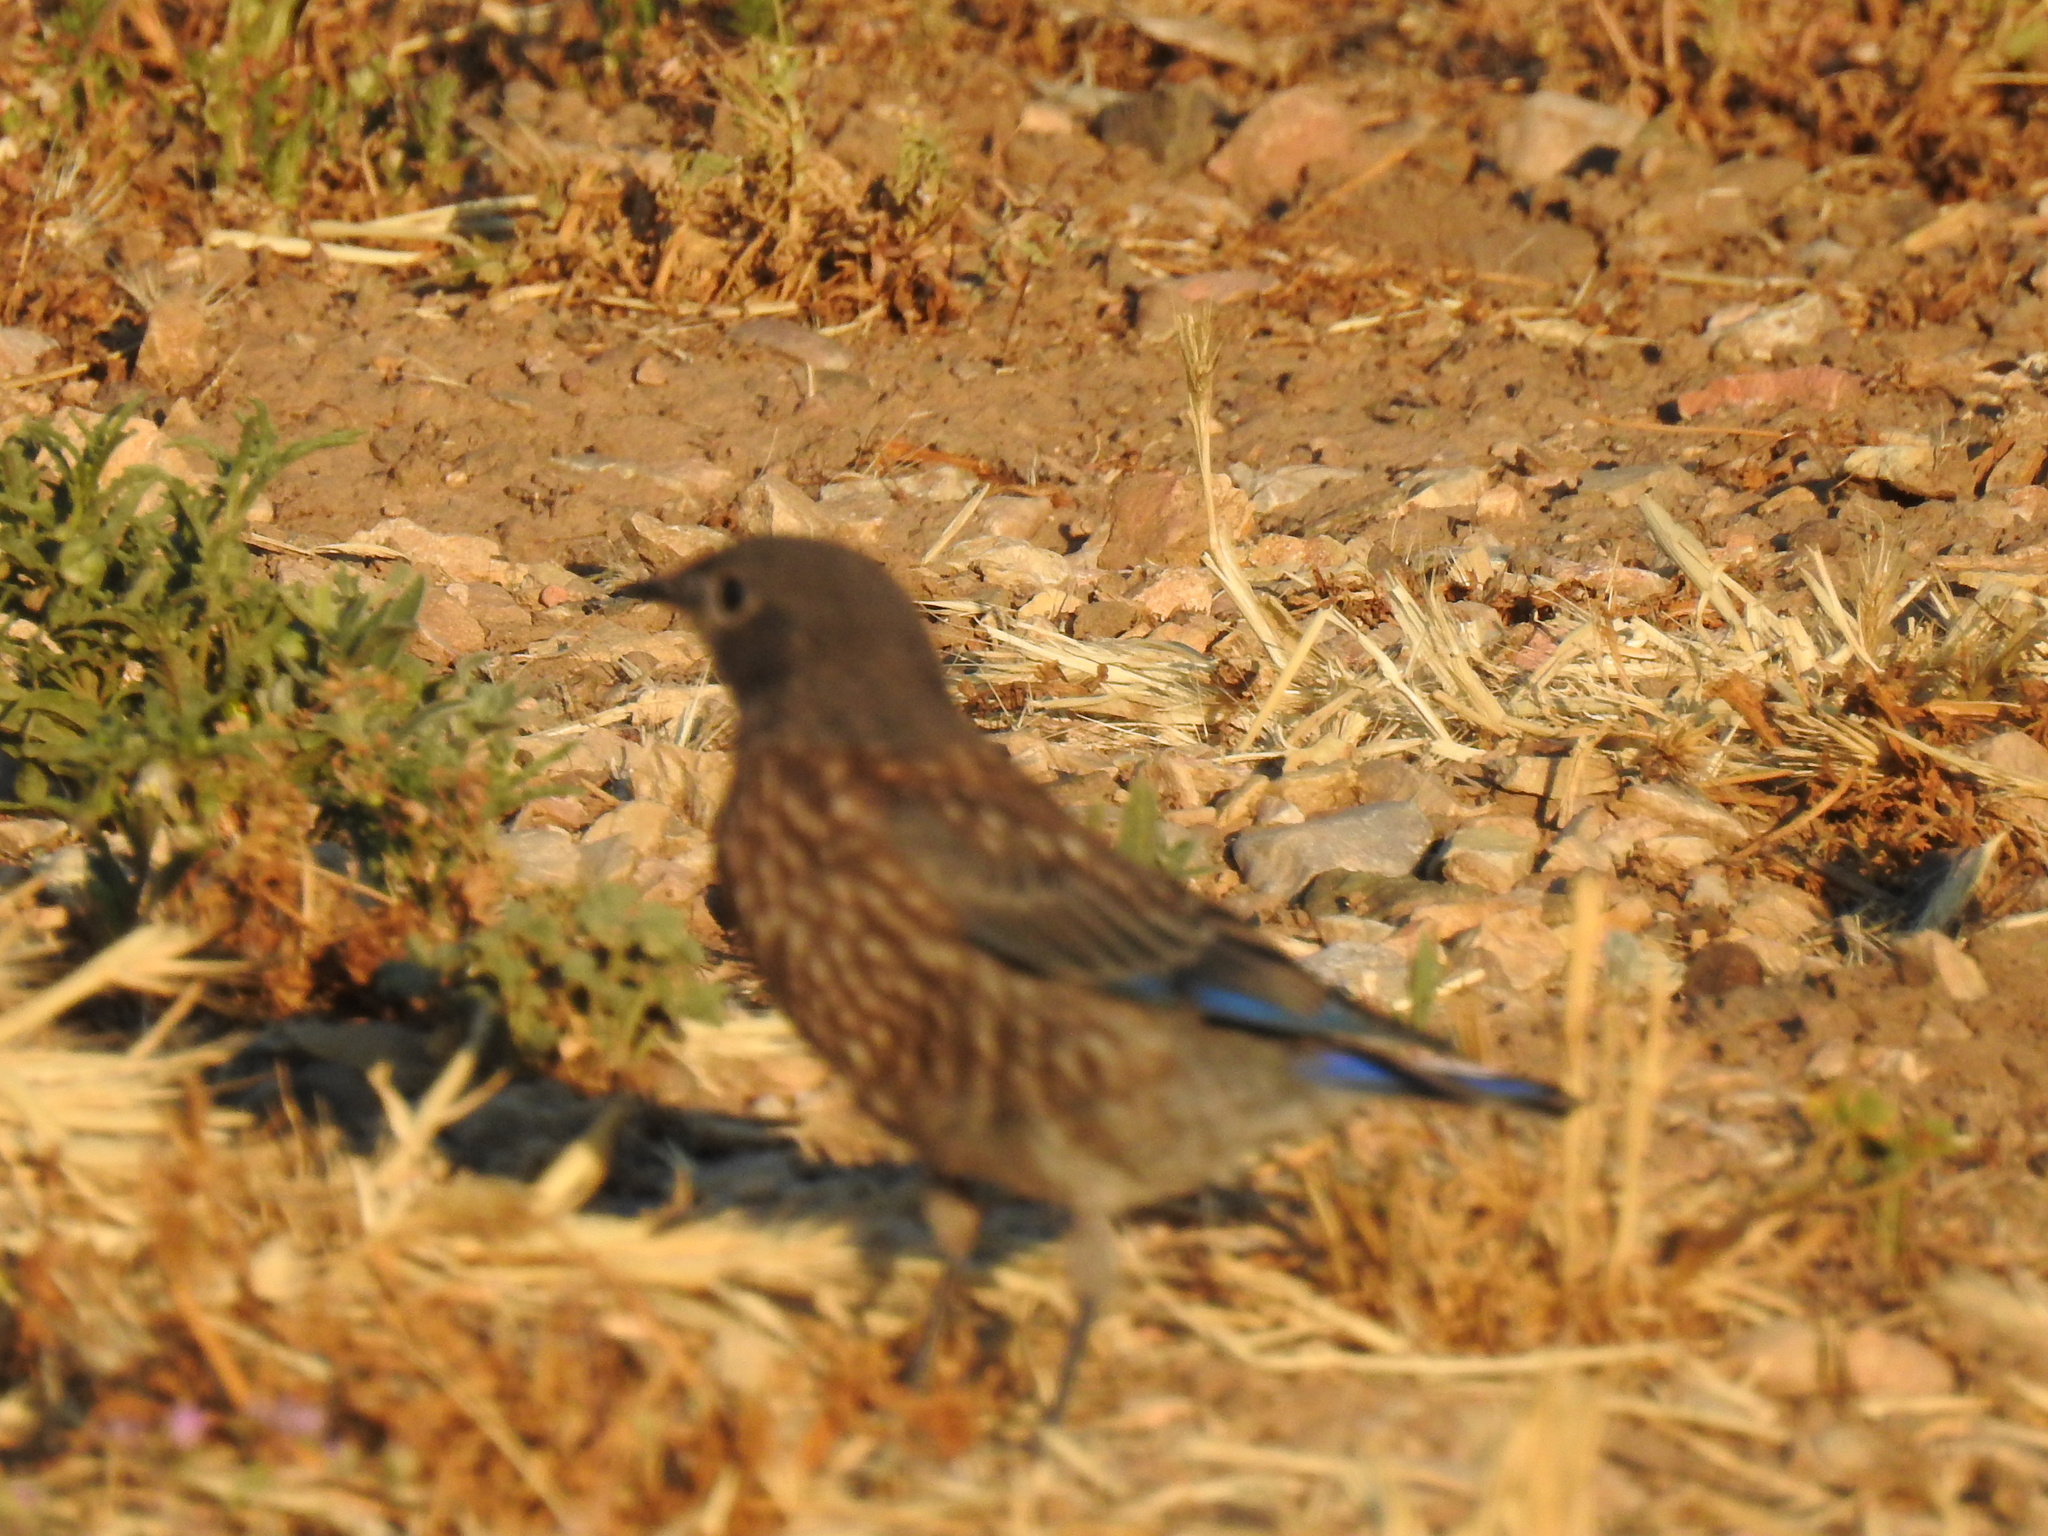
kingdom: Animalia
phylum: Chordata
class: Aves
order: Passeriformes
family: Turdidae
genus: Sialia
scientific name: Sialia mexicana
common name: Western bluebird
